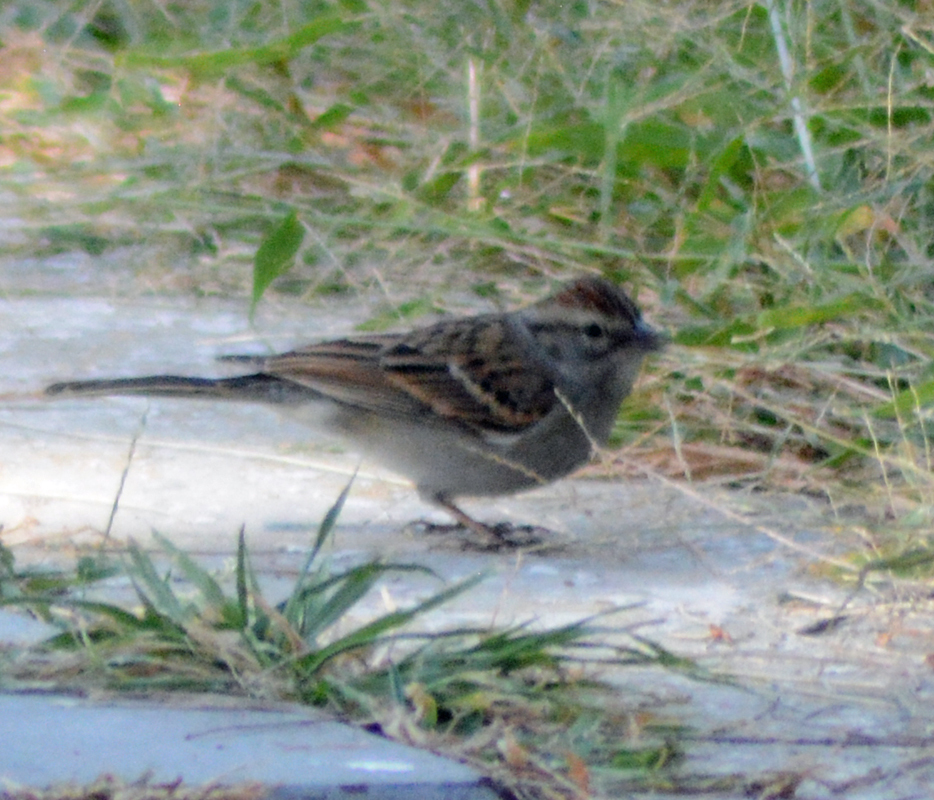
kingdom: Animalia
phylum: Chordata
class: Aves
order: Passeriformes
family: Passerellidae
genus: Spizella
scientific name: Spizella passerina
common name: Chipping sparrow
